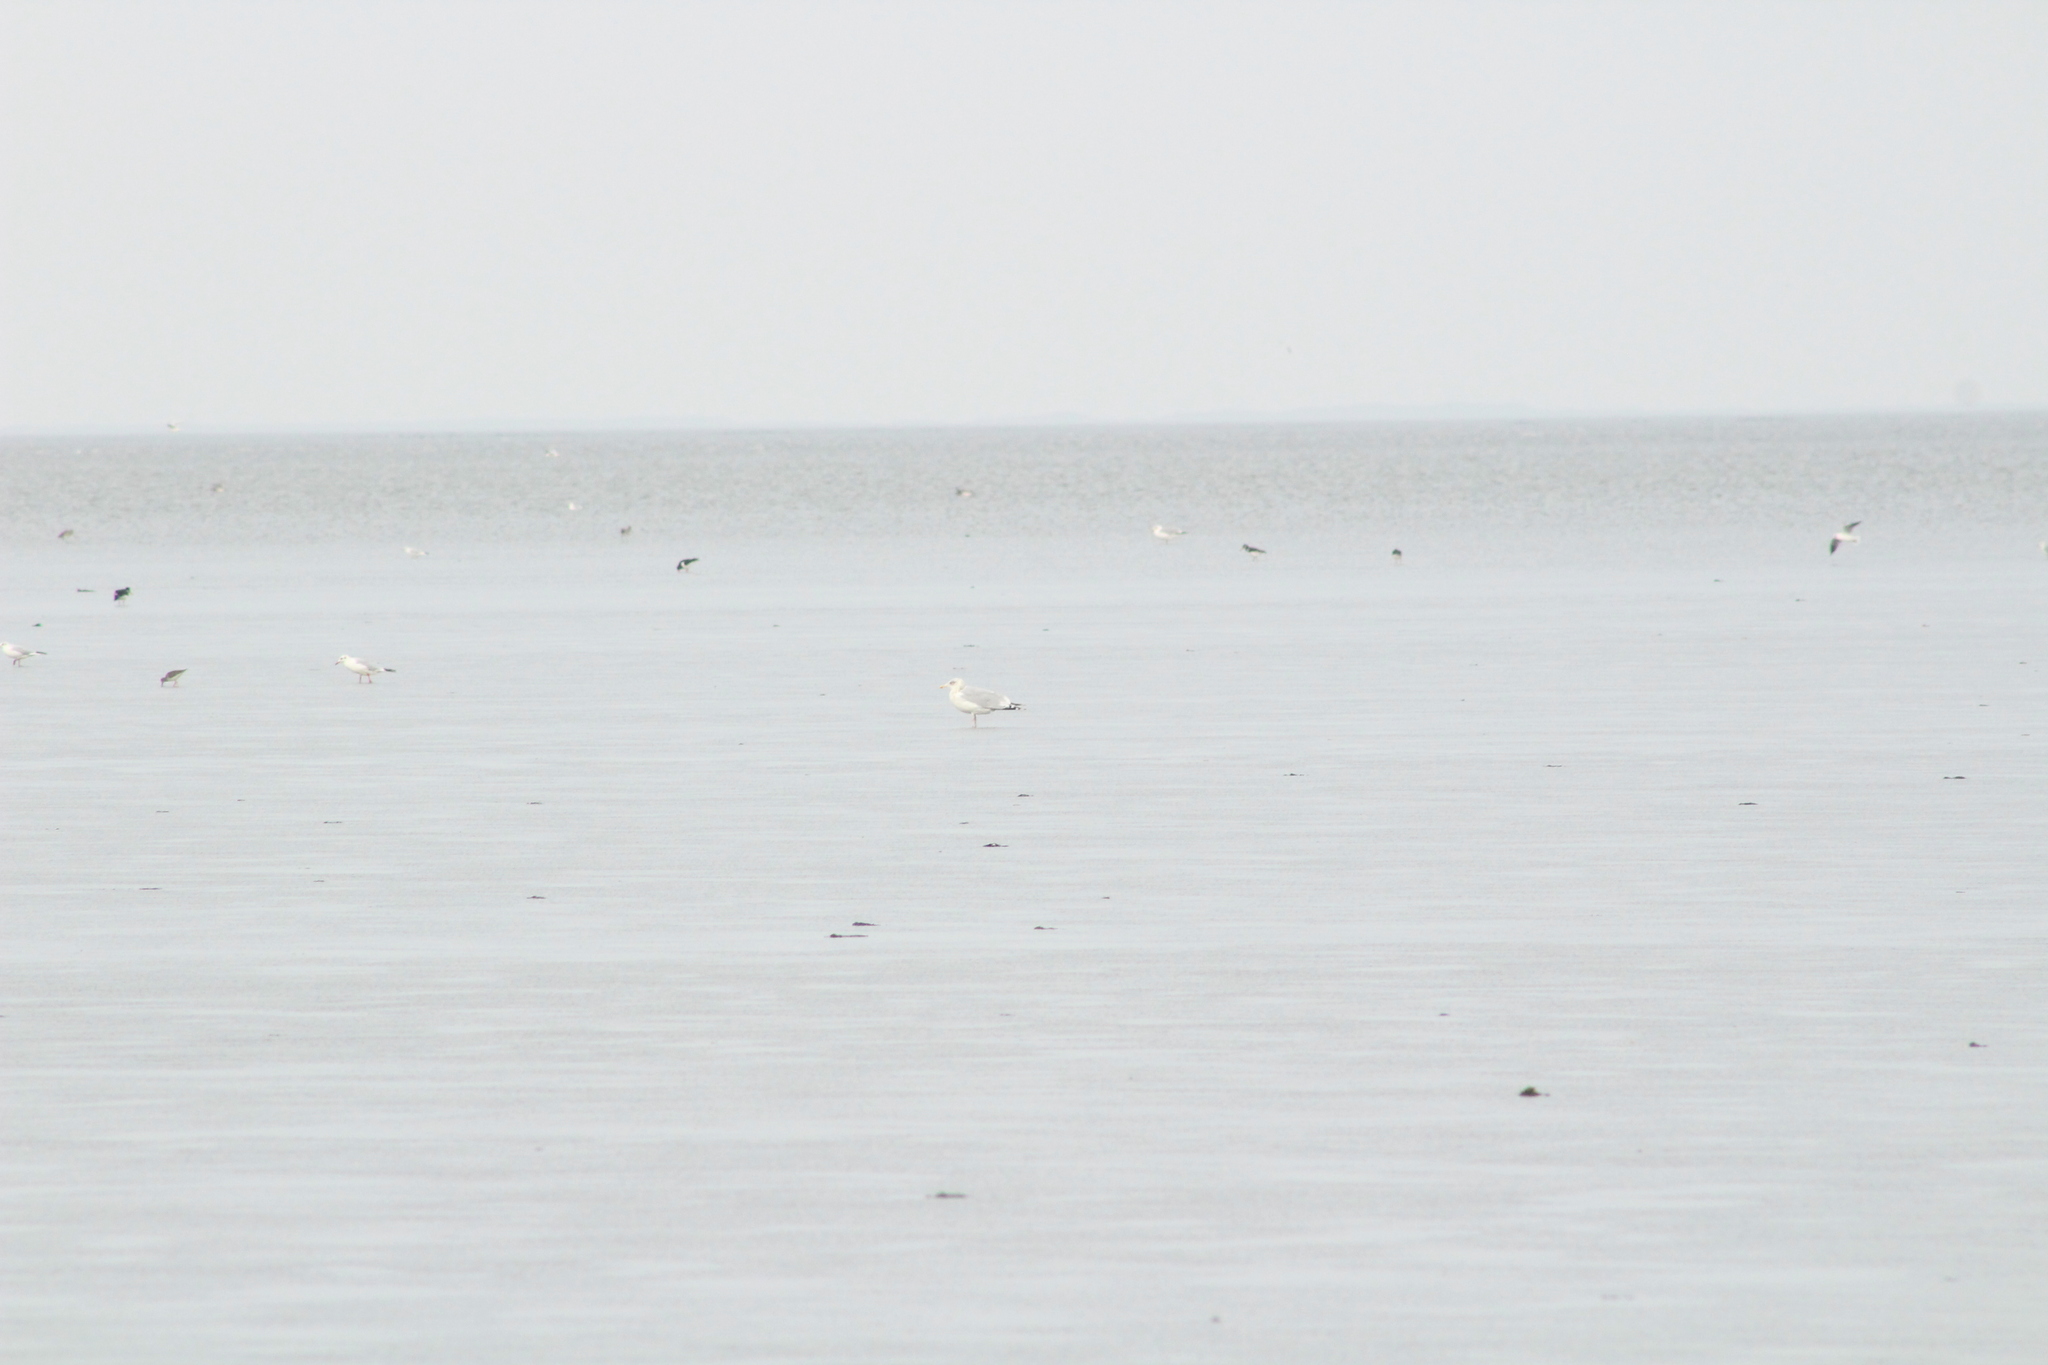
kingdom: Animalia
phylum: Chordata
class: Aves
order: Charadriiformes
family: Laridae
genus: Larus
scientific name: Larus argentatus
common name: Herring gull
